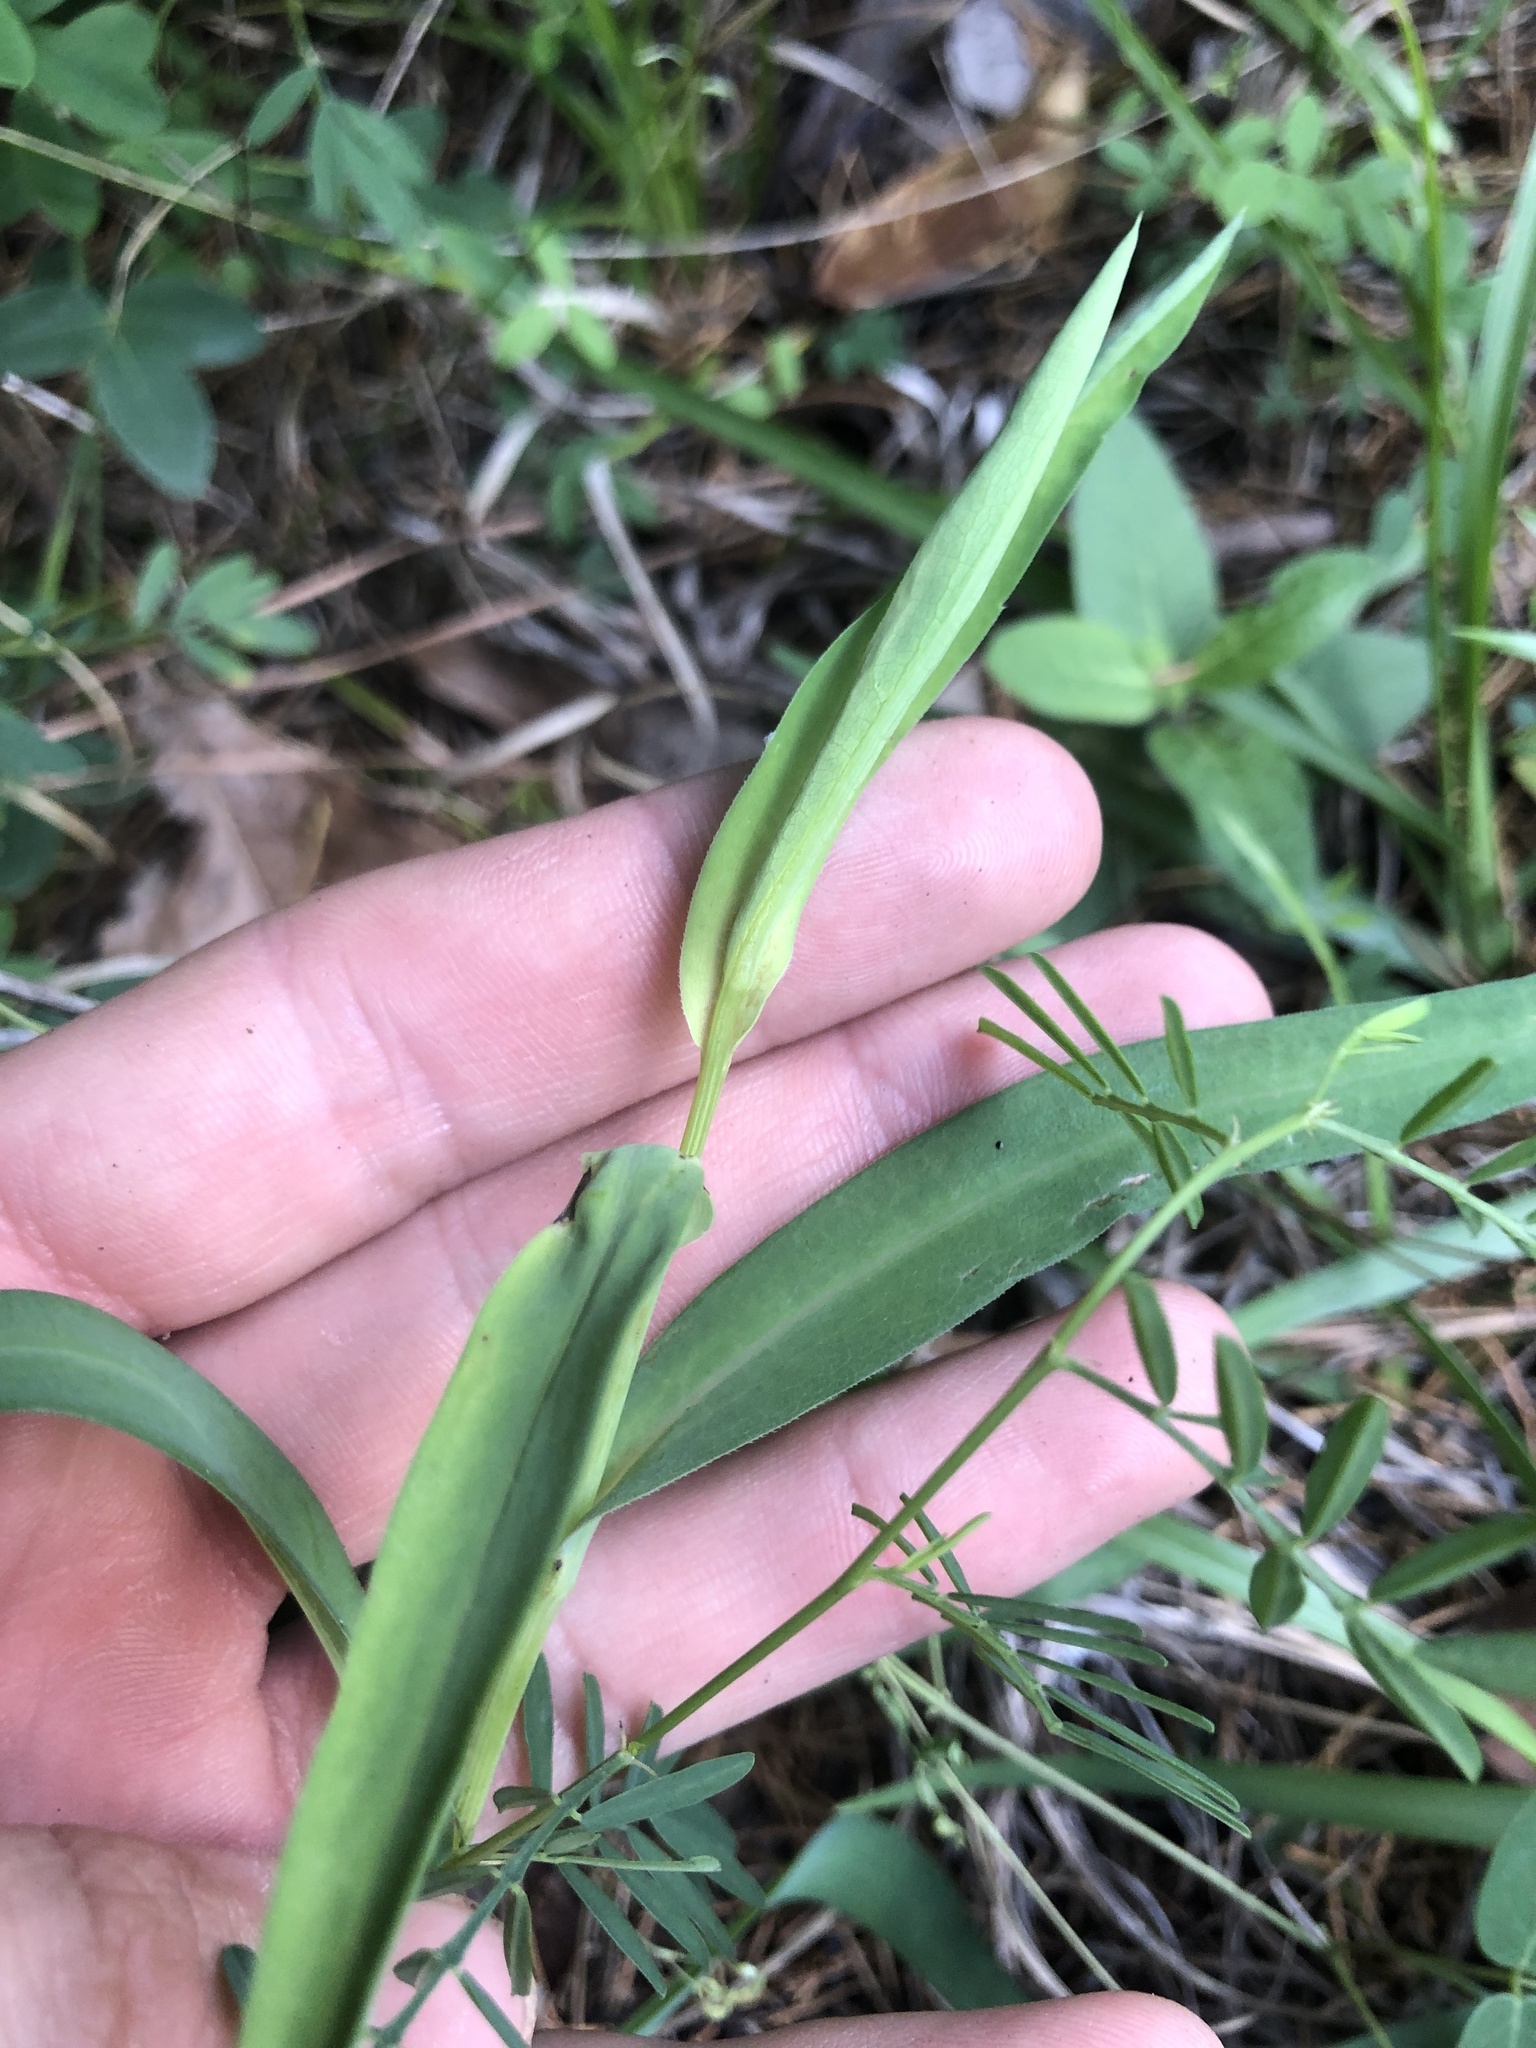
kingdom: Plantae
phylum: Tracheophyta
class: Magnoliopsida
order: Asterales
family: Asteraceae
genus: Symphyotrichum
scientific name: Symphyotrichum laeve
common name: Glaucous aster
